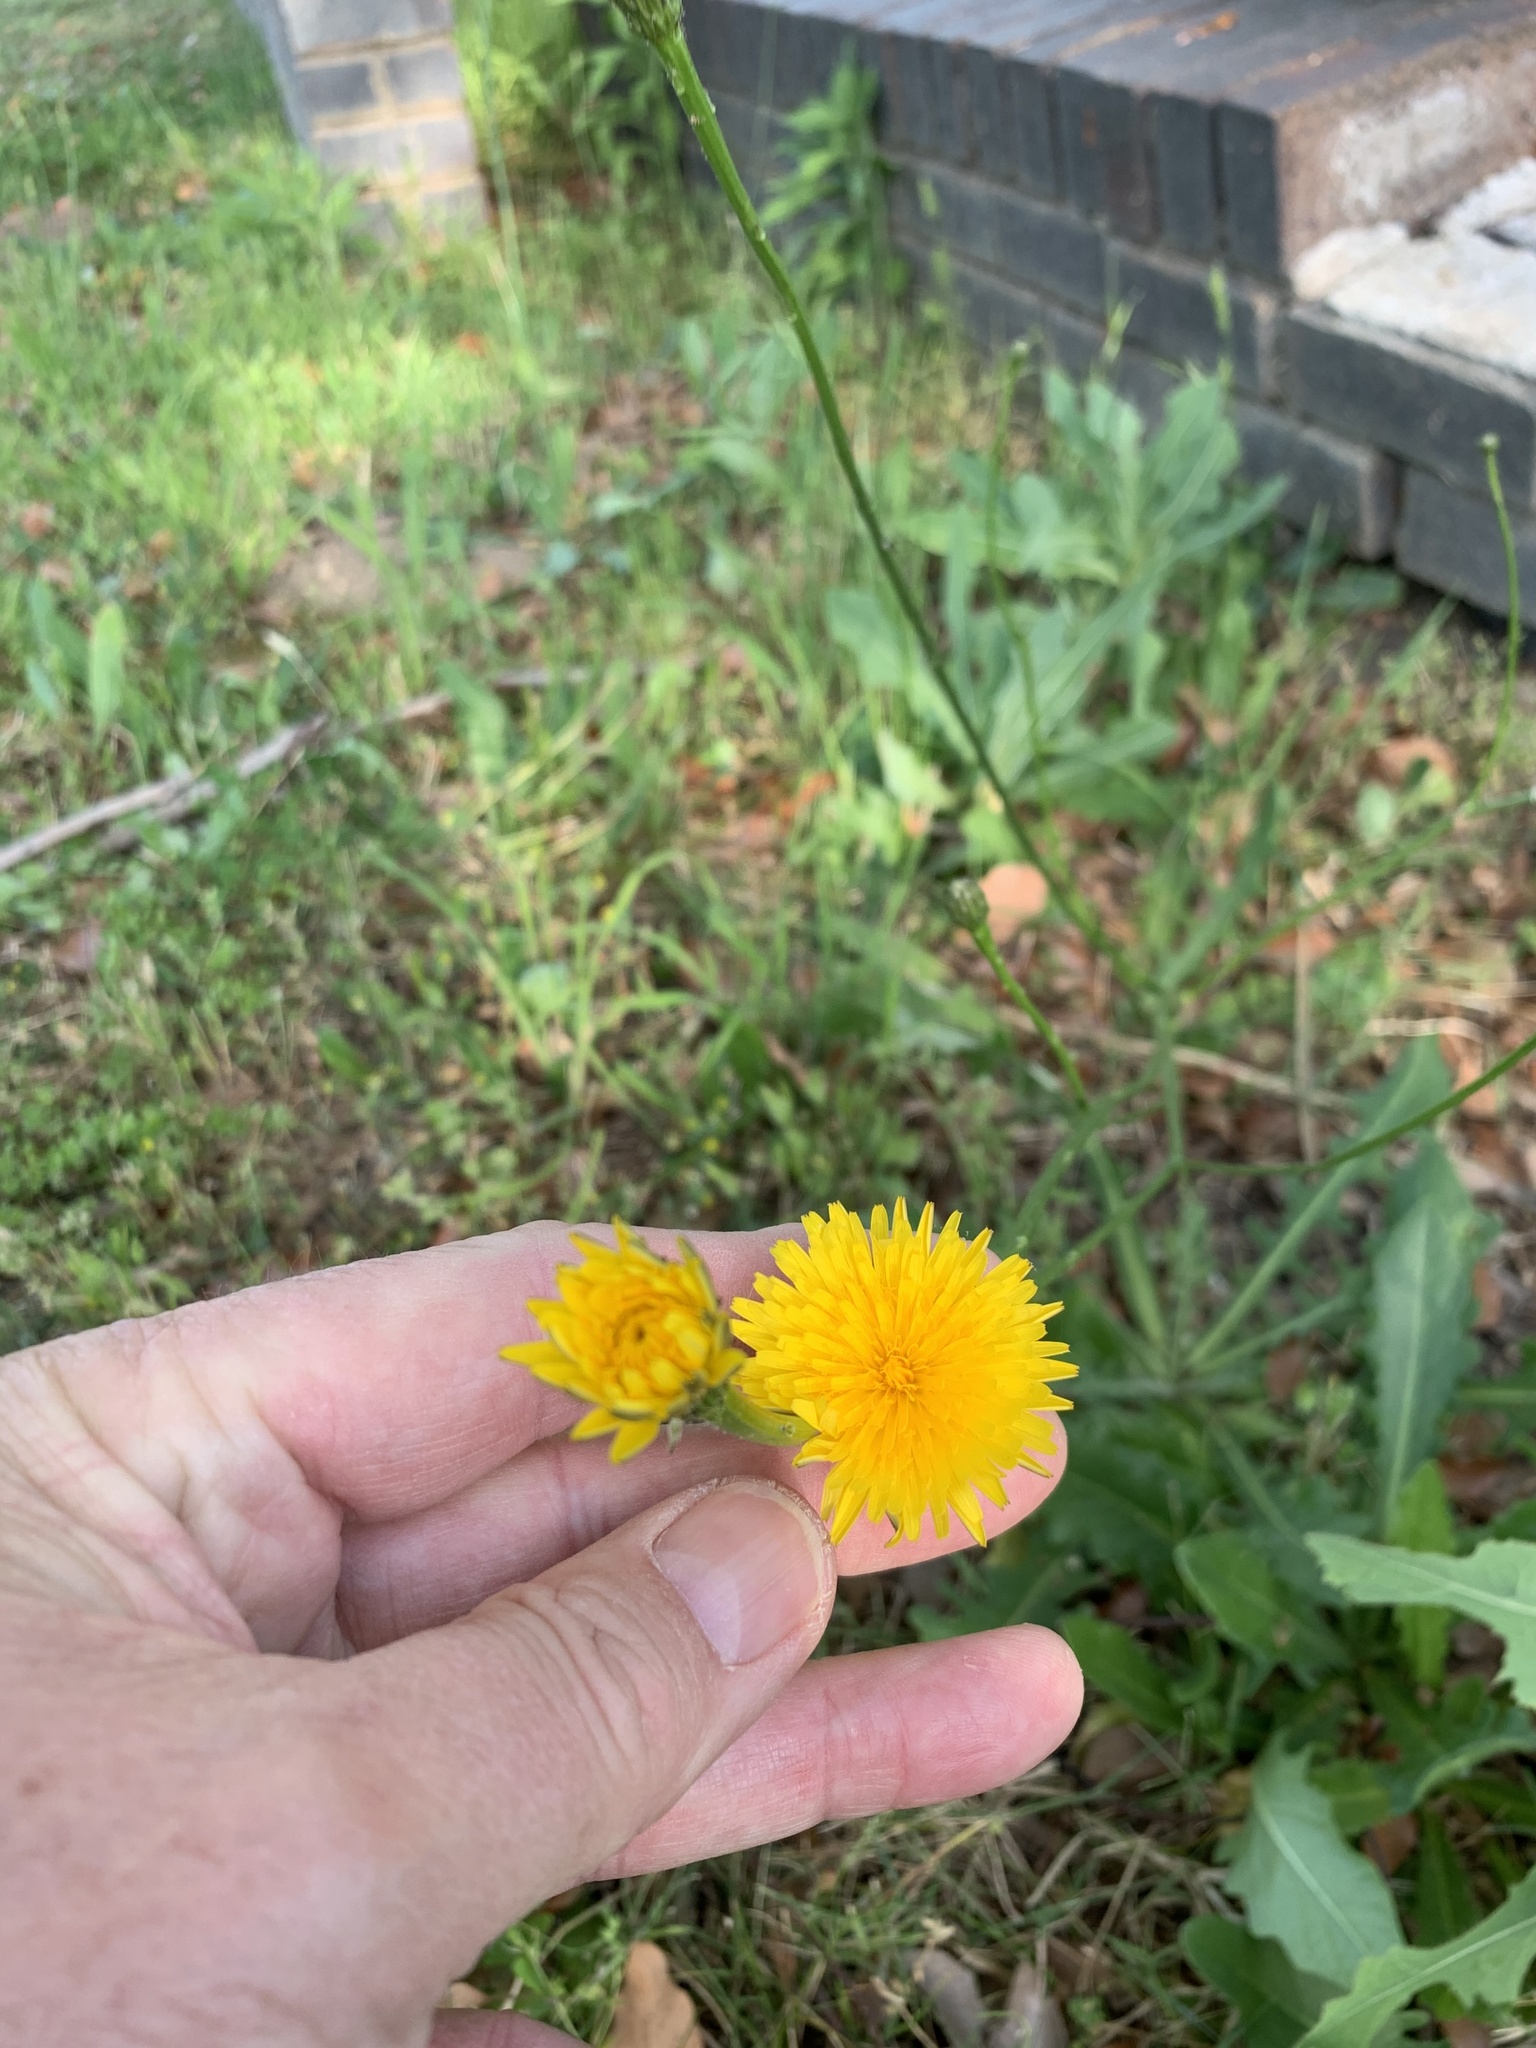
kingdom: Plantae
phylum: Tracheophyta
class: Magnoliopsida
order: Asterales
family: Asteraceae
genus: Hypochaeris
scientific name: Hypochaeris radicata
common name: Flatweed
